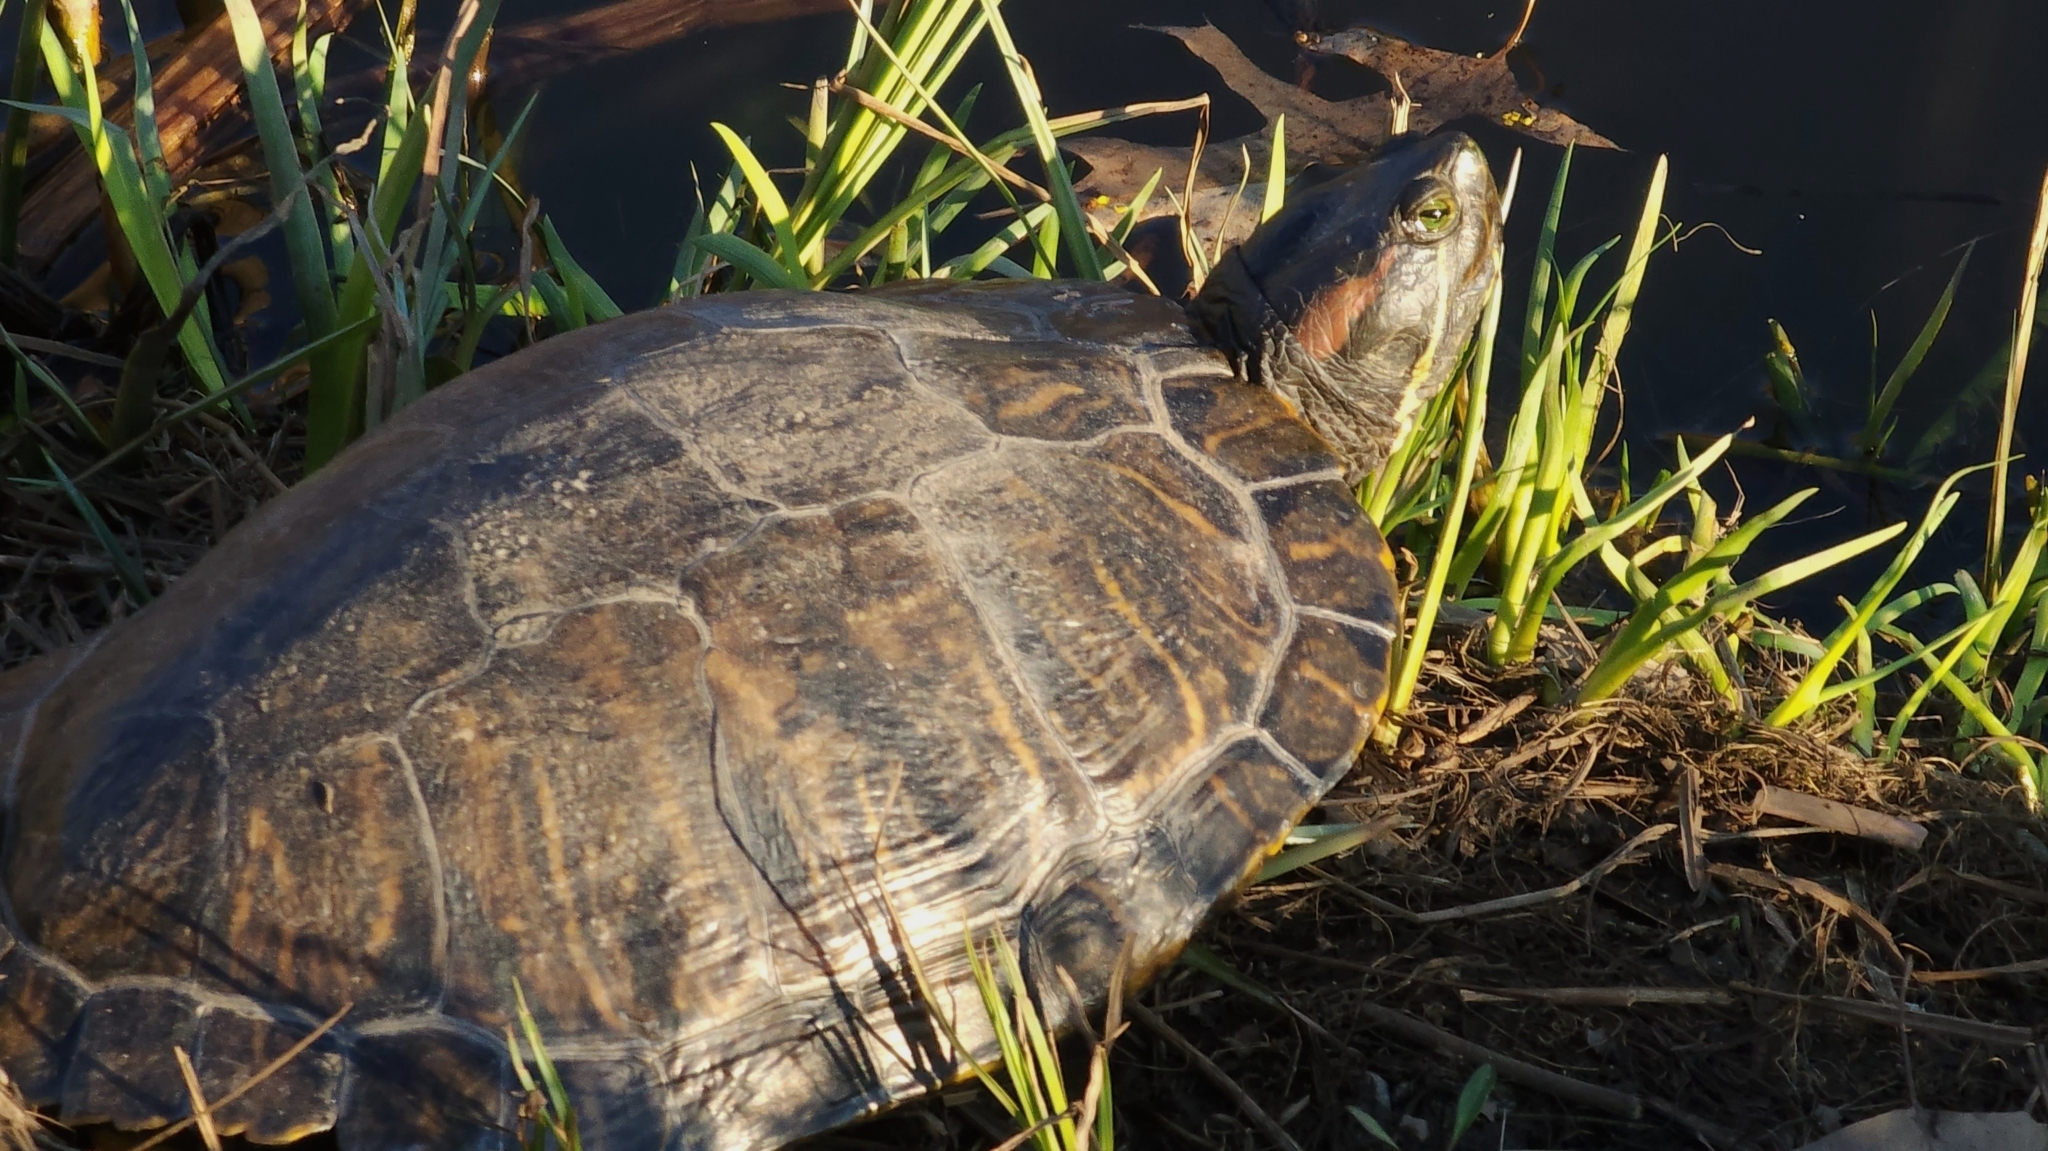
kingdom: Animalia
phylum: Chordata
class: Testudines
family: Emydidae
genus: Trachemys
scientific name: Trachemys scripta
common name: Slider
